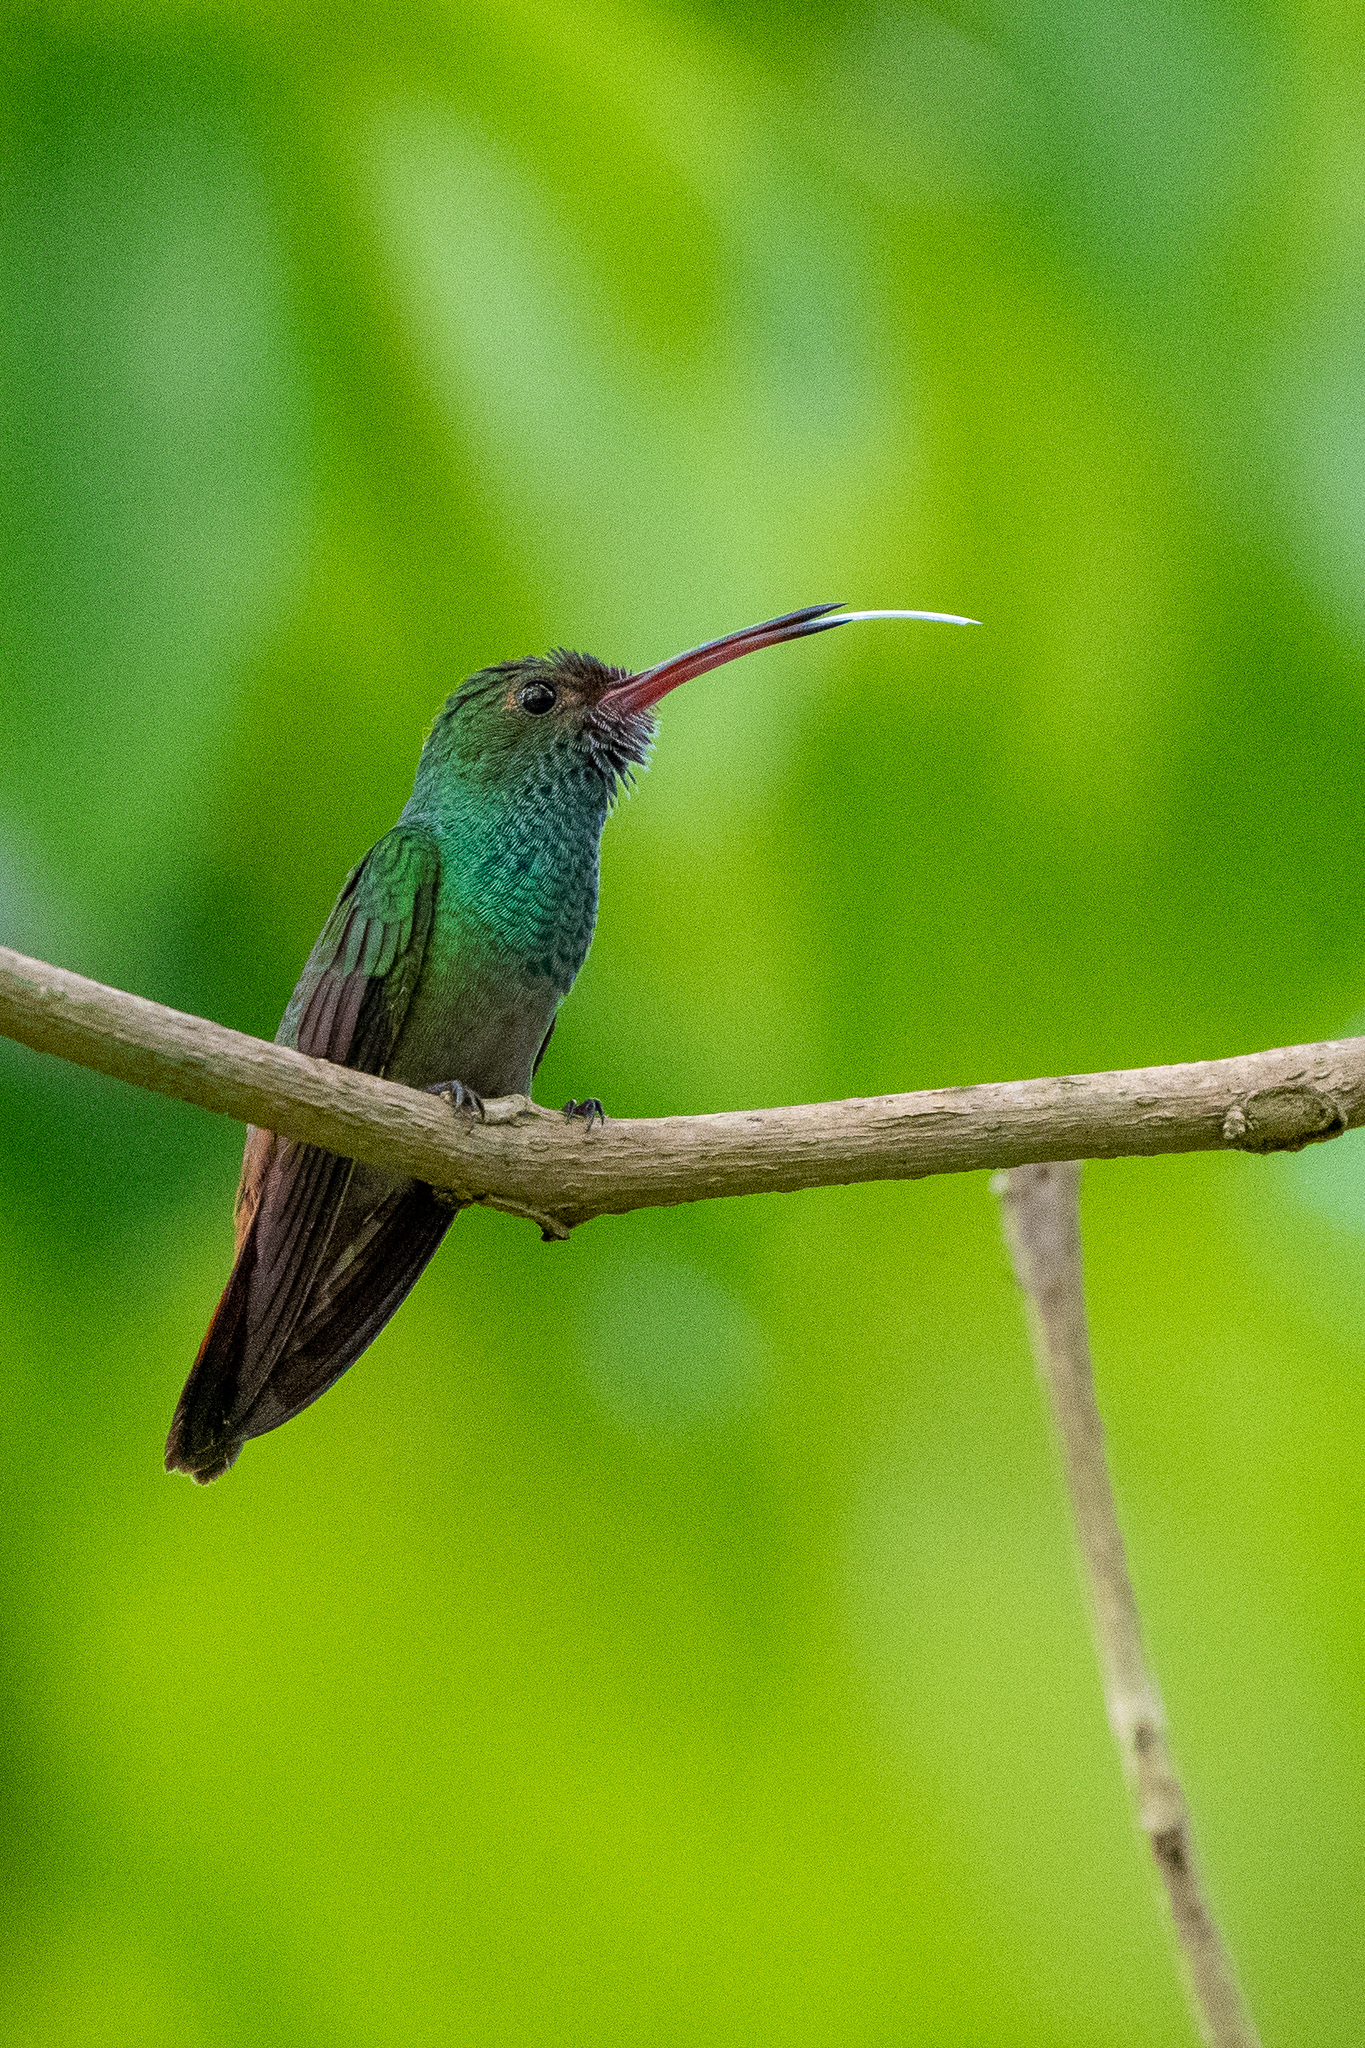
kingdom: Animalia
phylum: Chordata
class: Aves
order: Apodiformes
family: Trochilidae
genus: Amazilia
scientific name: Amazilia tzacatl
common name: Rufous-tailed hummingbird
